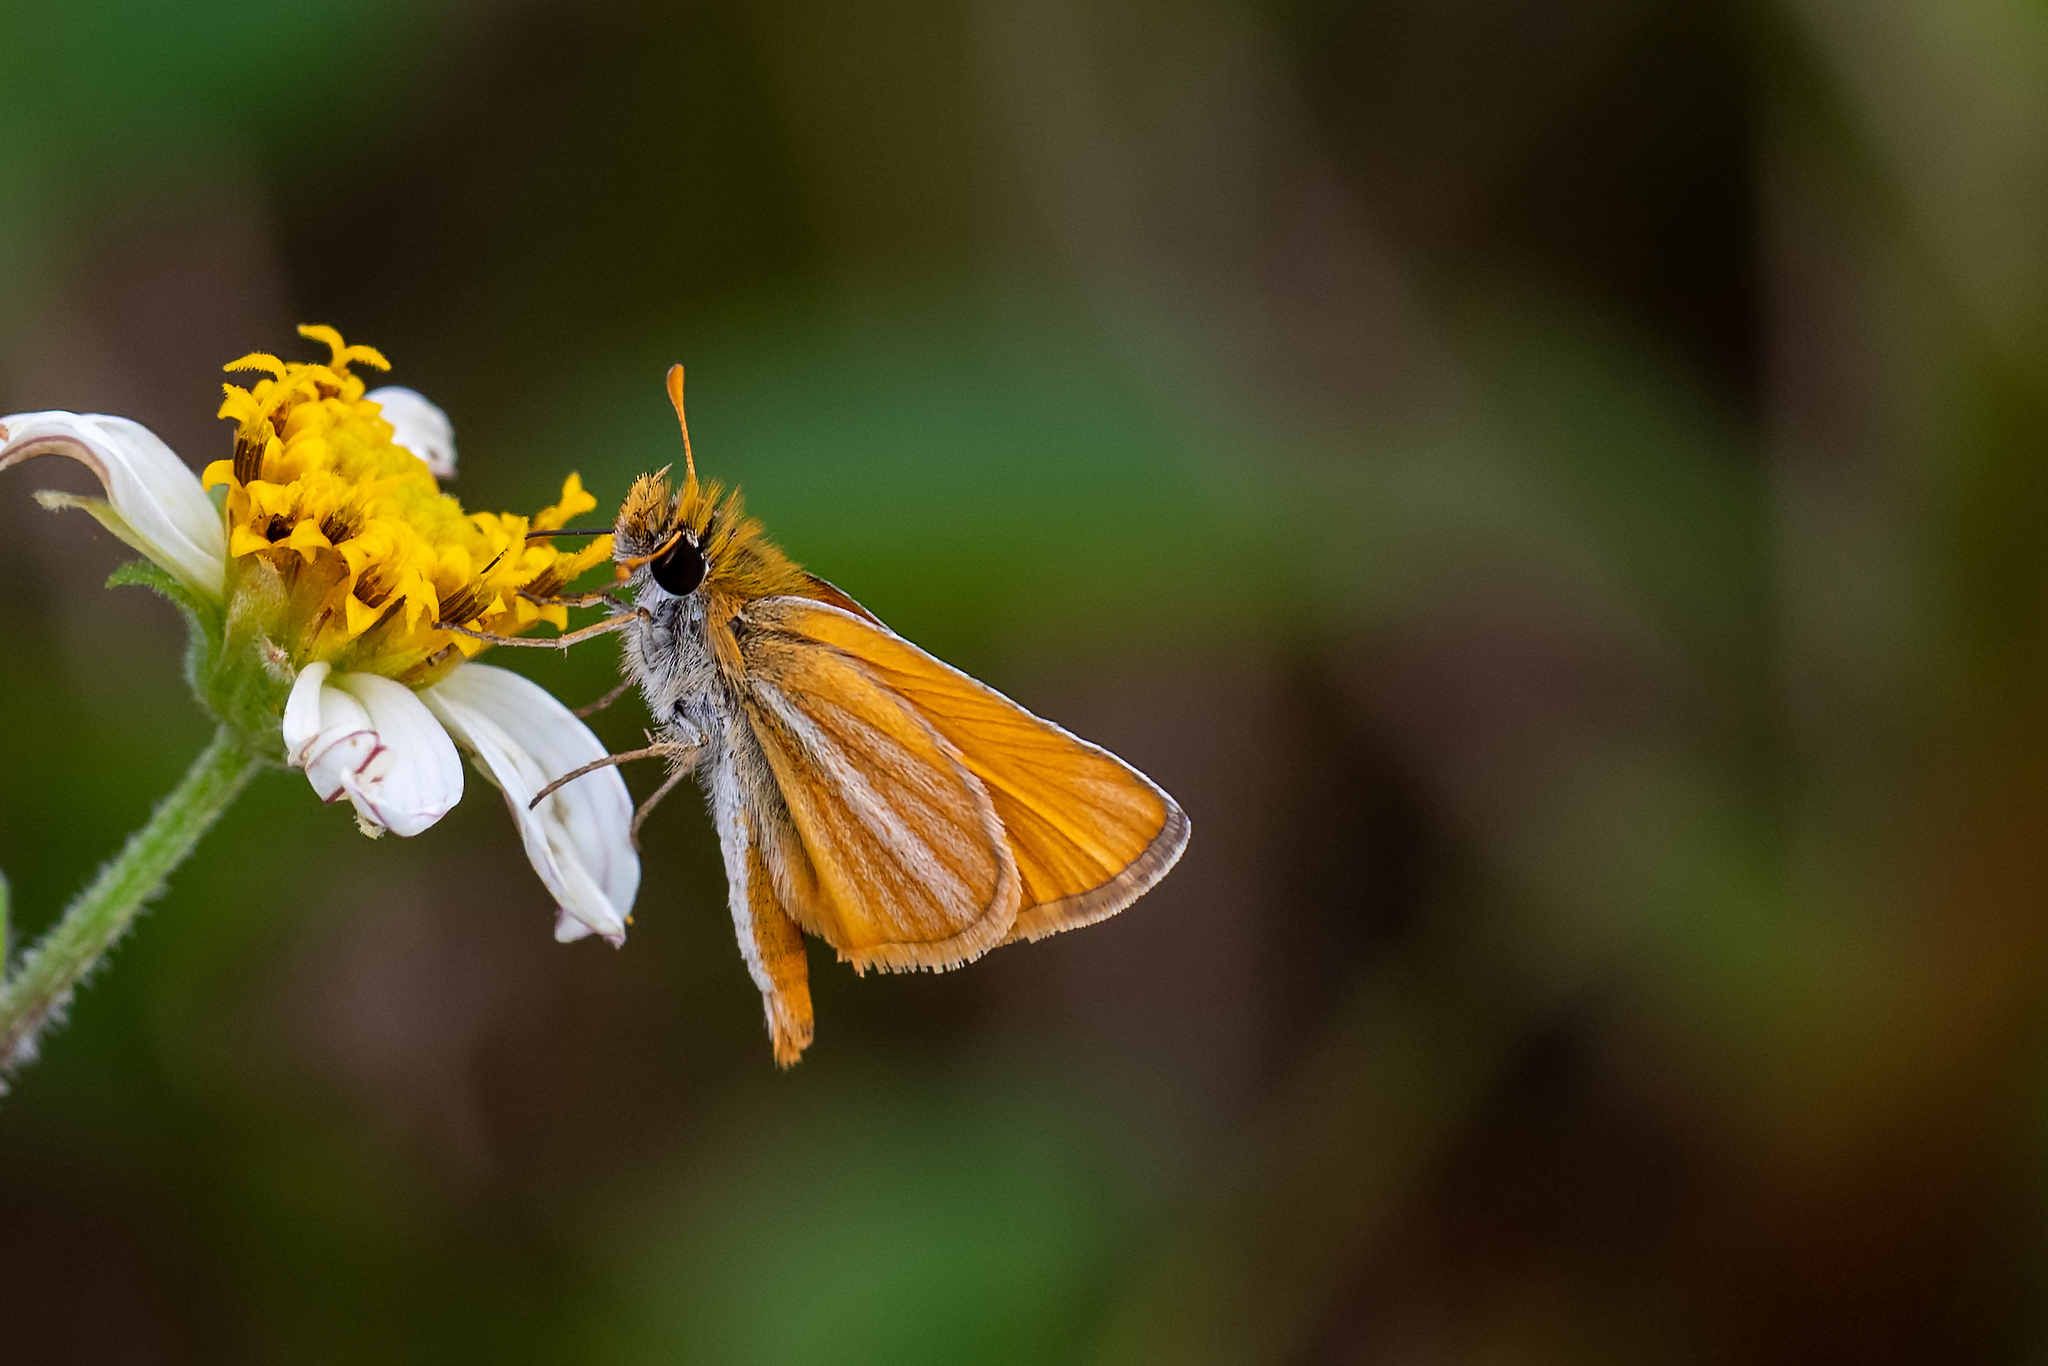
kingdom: Animalia
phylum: Arthropoda
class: Insecta
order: Lepidoptera
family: Hesperiidae
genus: Copaeodes
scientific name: Copaeodes minima
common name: Southern skipperling
